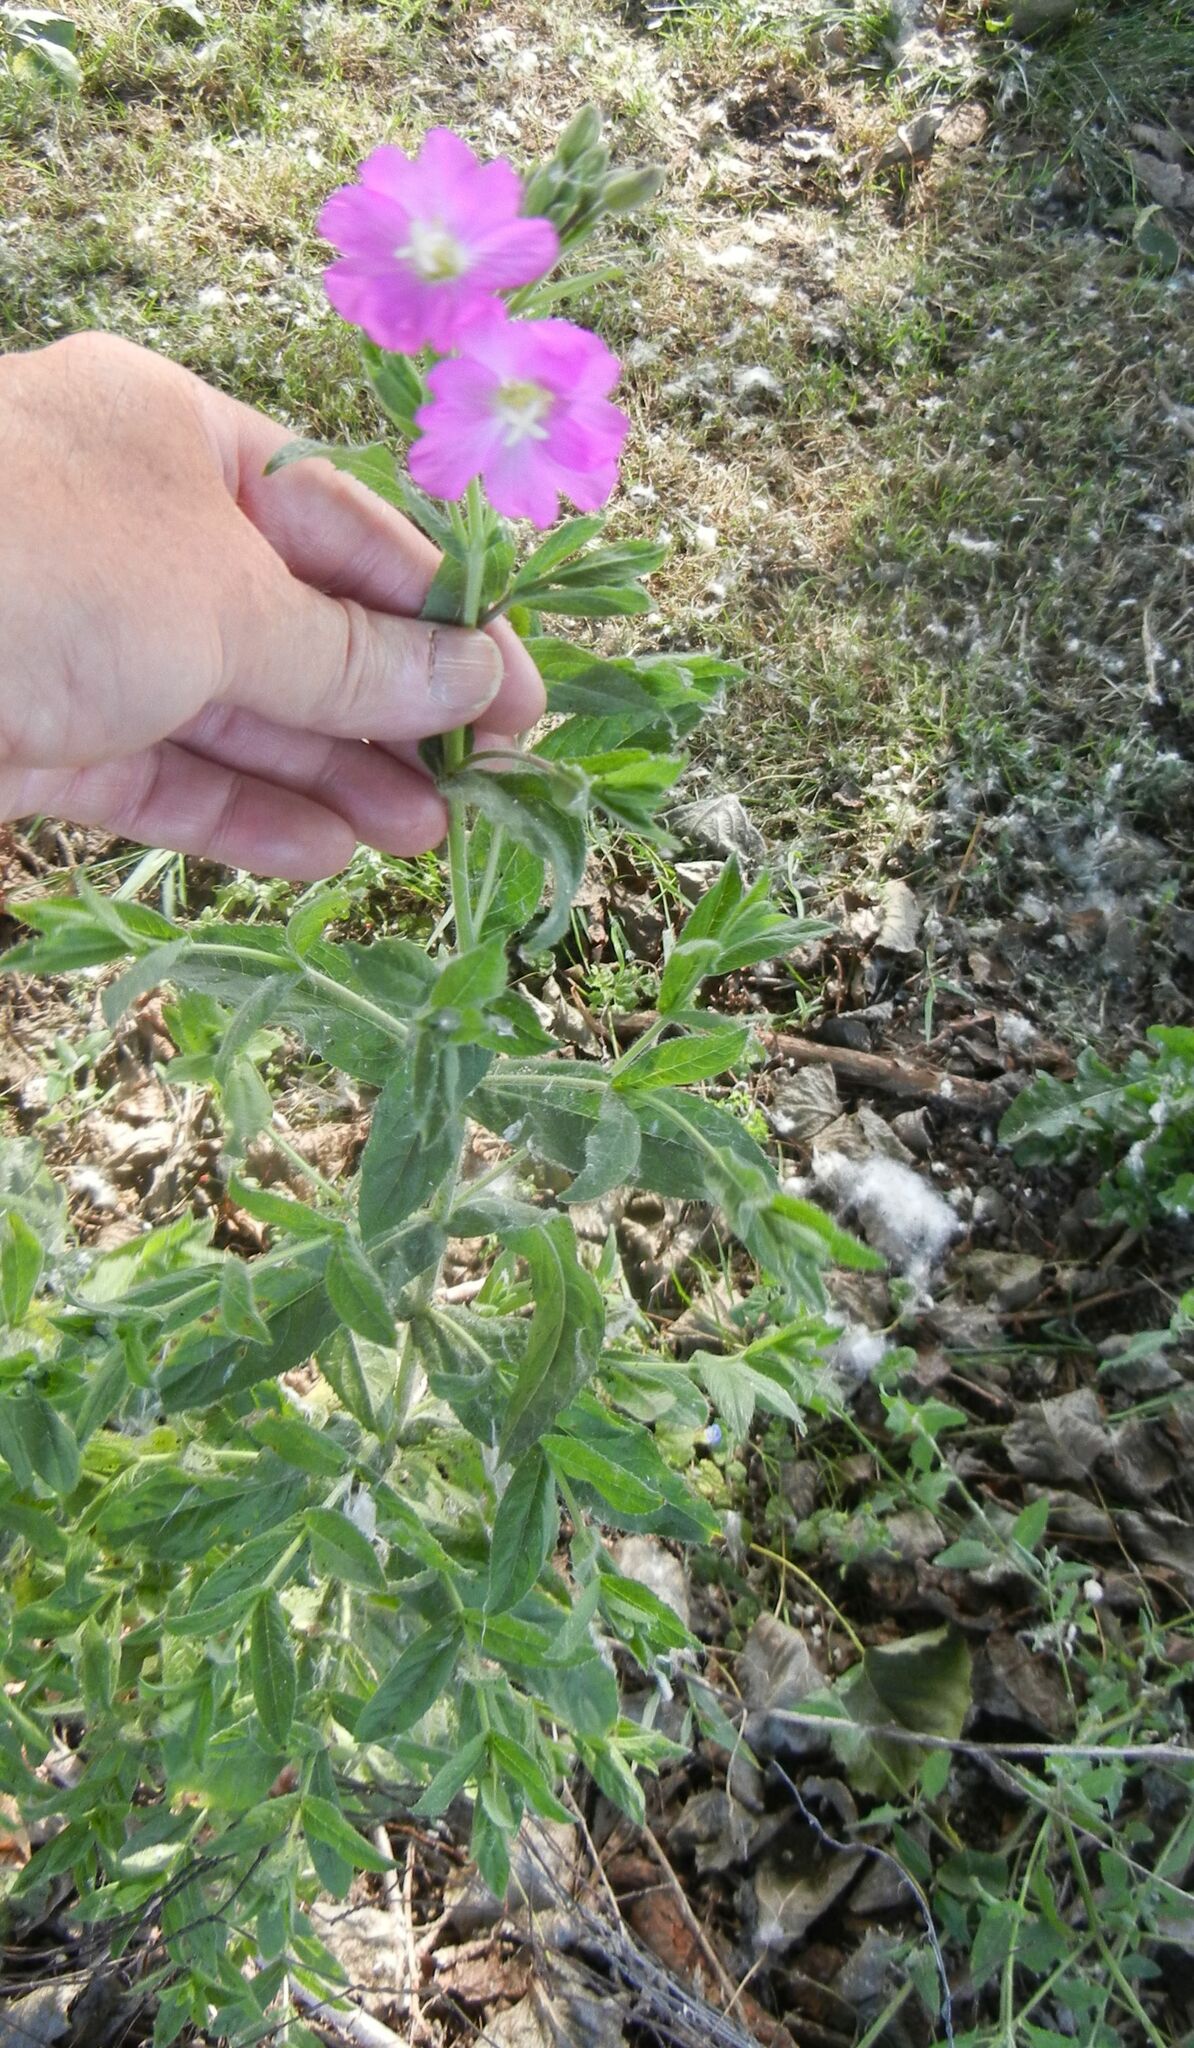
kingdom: Plantae
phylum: Tracheophyta
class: Magnoliopsida
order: Myrtales
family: Onagraceae
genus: Epilobium
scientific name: Epilobium hirsutum
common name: Great willowherb
